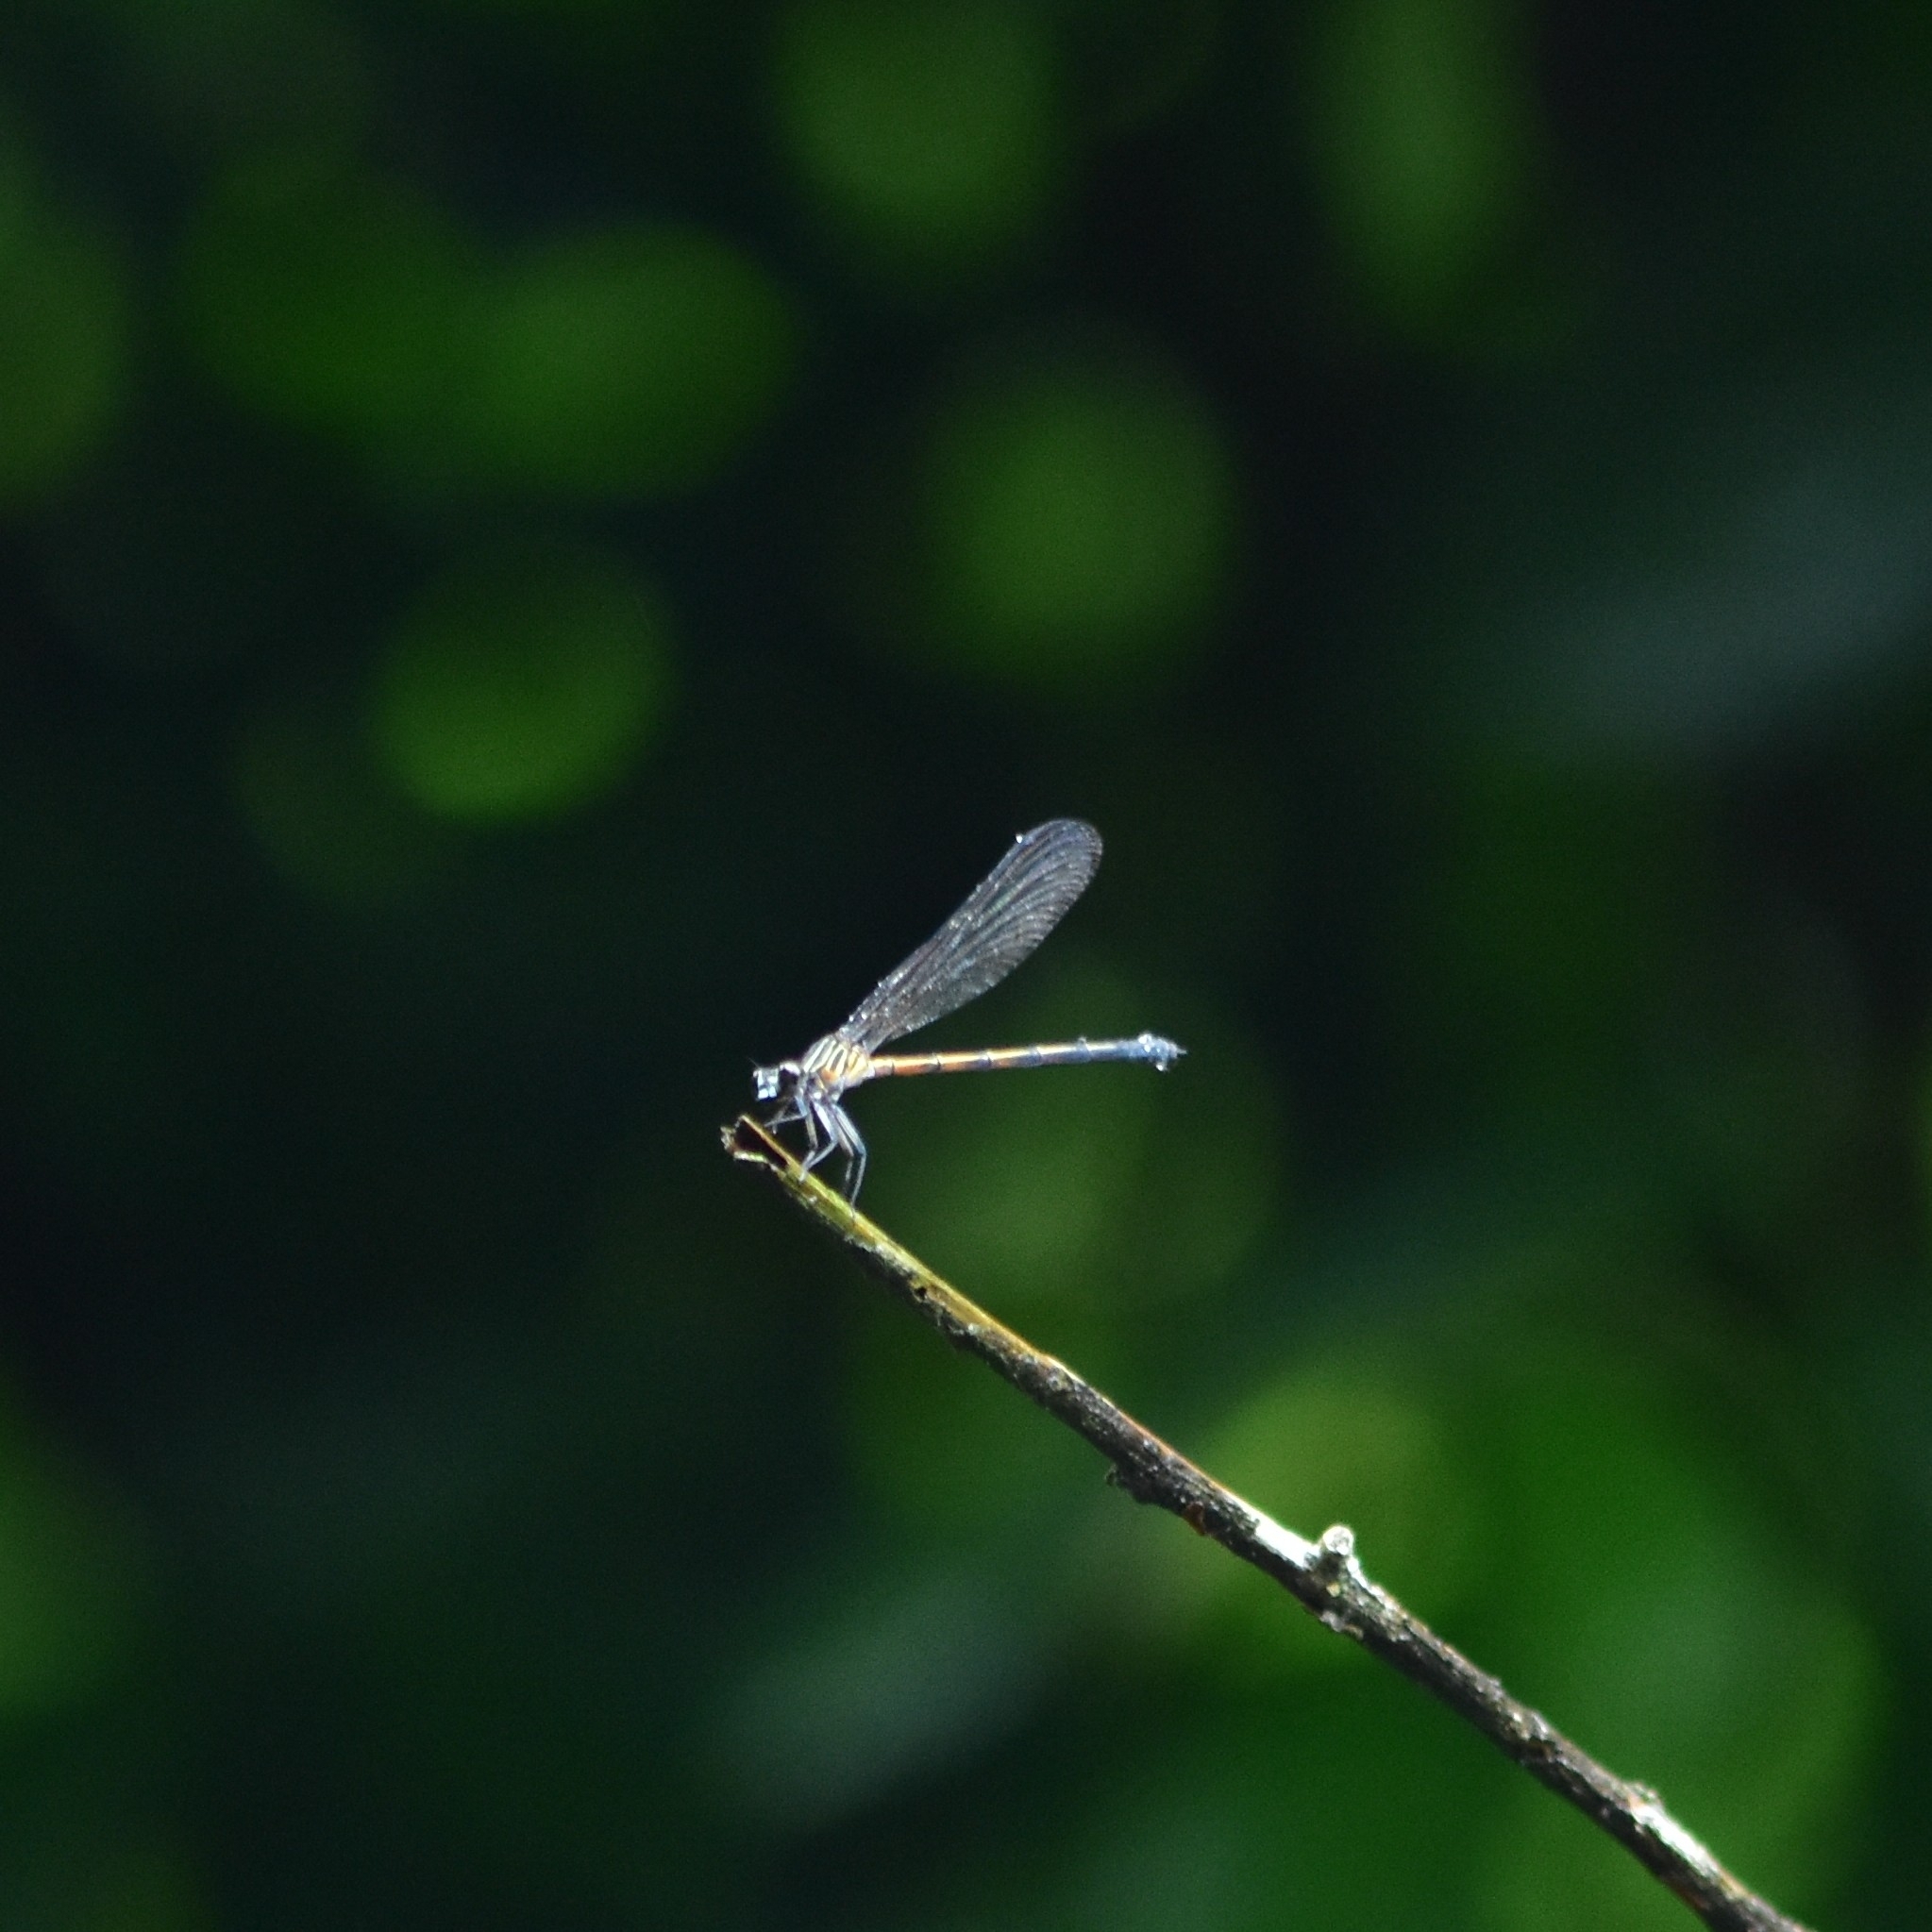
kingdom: Animalia
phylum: Arthropoda
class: Insecta
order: Odonata
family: Euphaeidae
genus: Euphaea
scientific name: Euphaea fraseri
